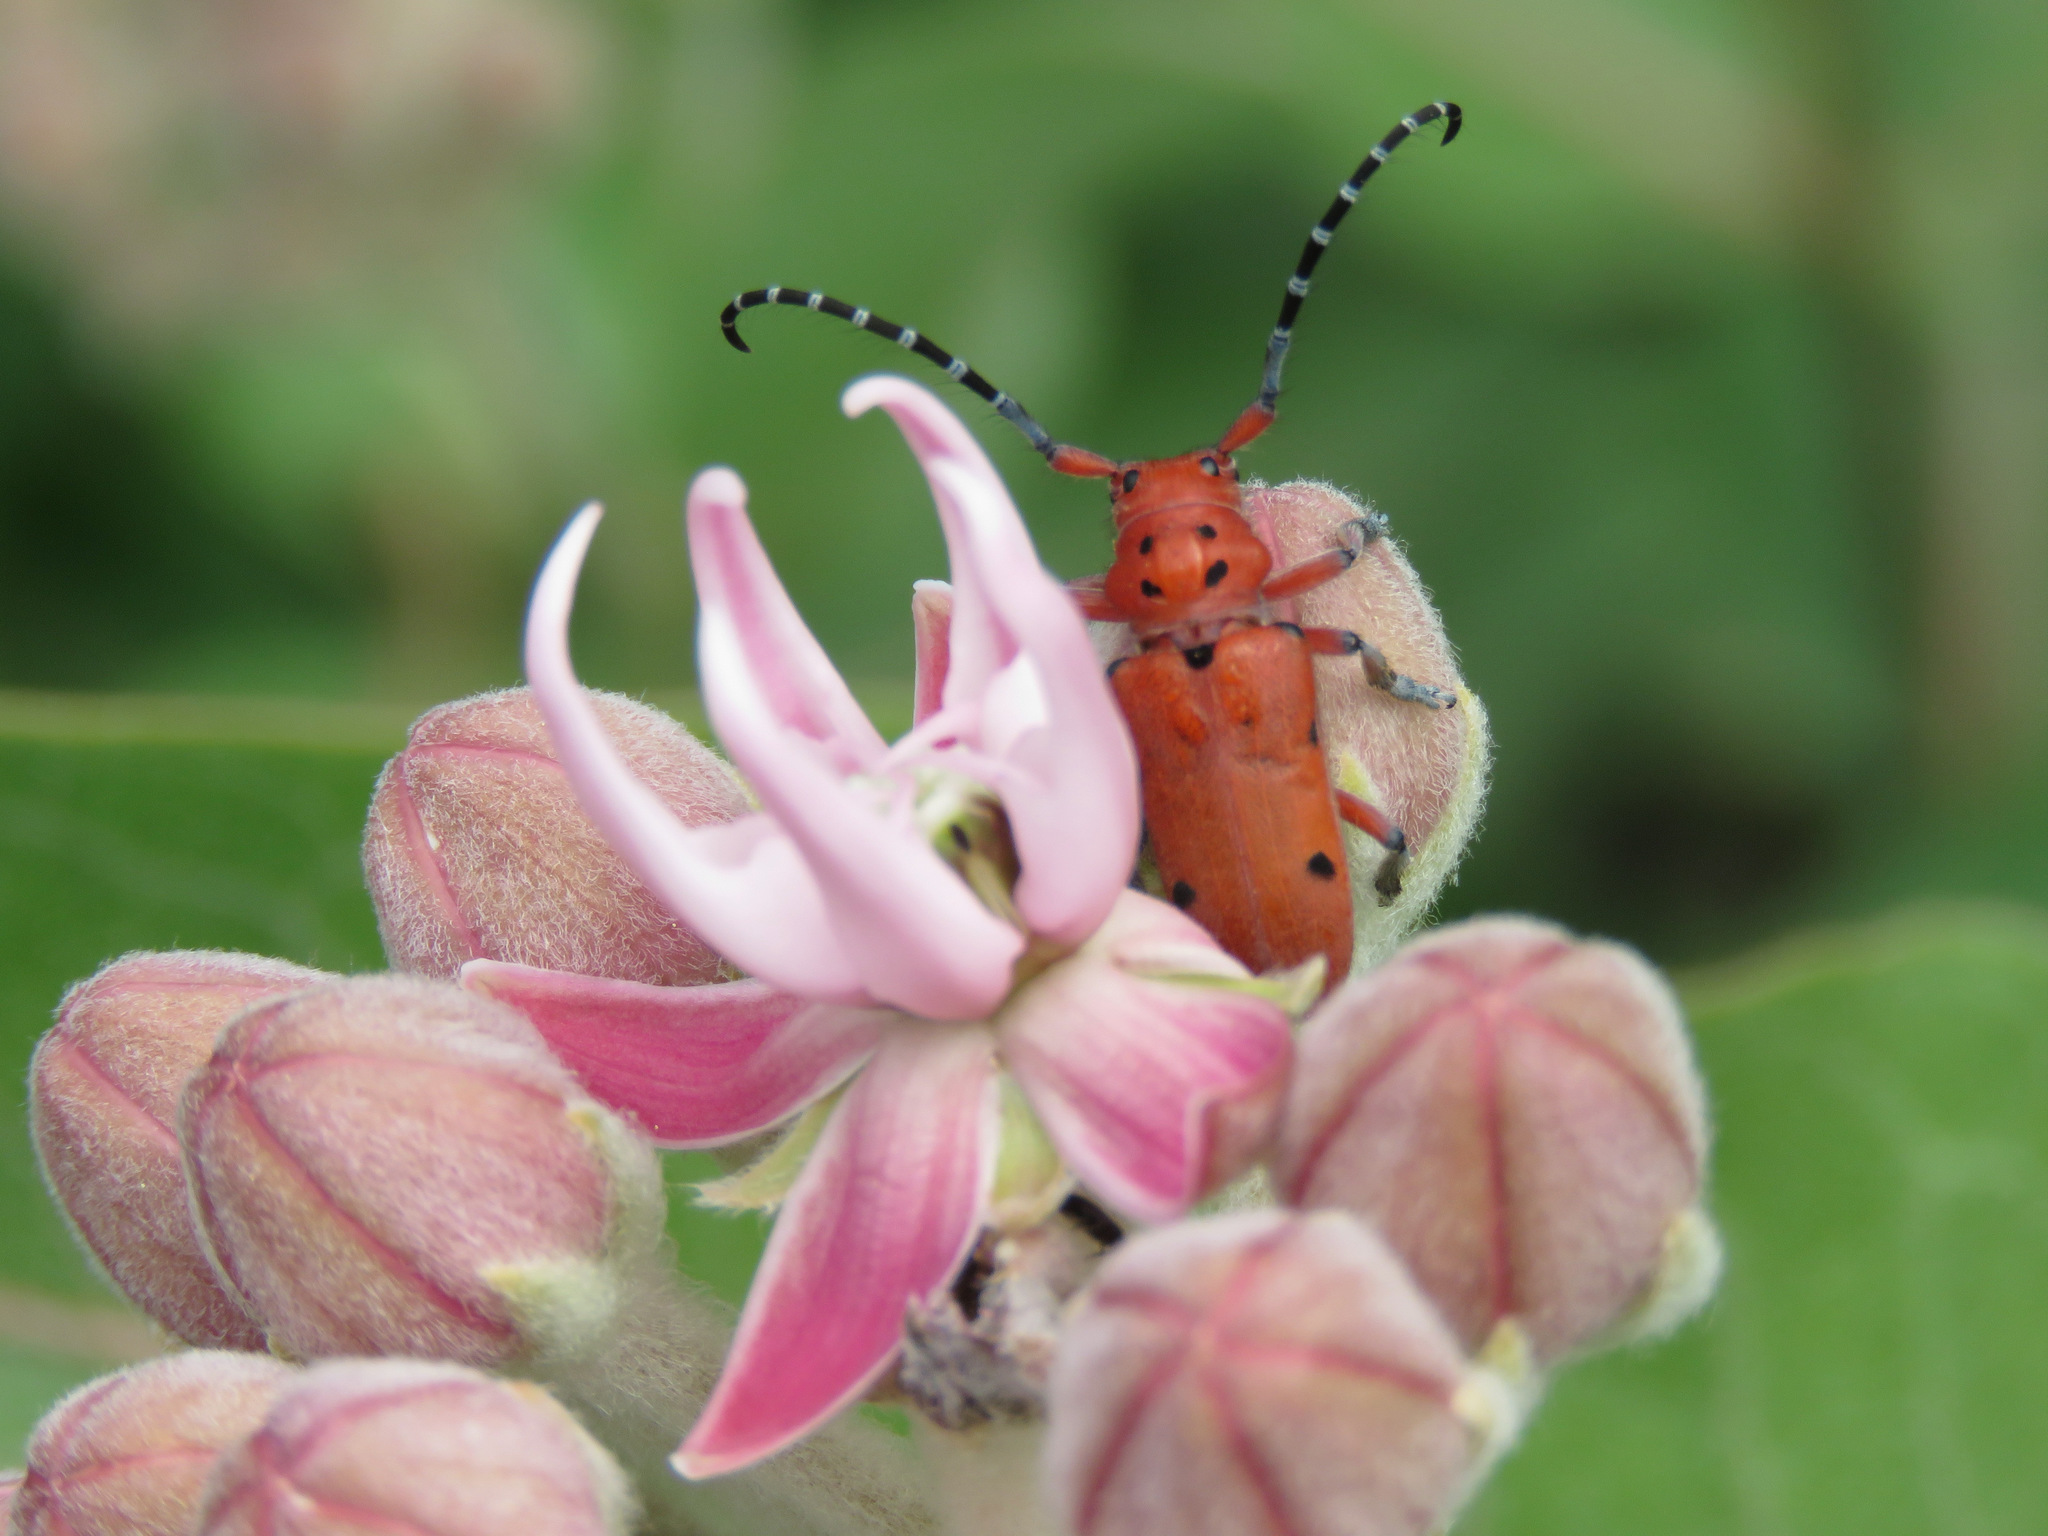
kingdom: Animalia
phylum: Arthropoda
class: Insecta
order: Coleoptera
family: Cerambycidae
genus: Tetraopes
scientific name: Tetraopes femoratus
